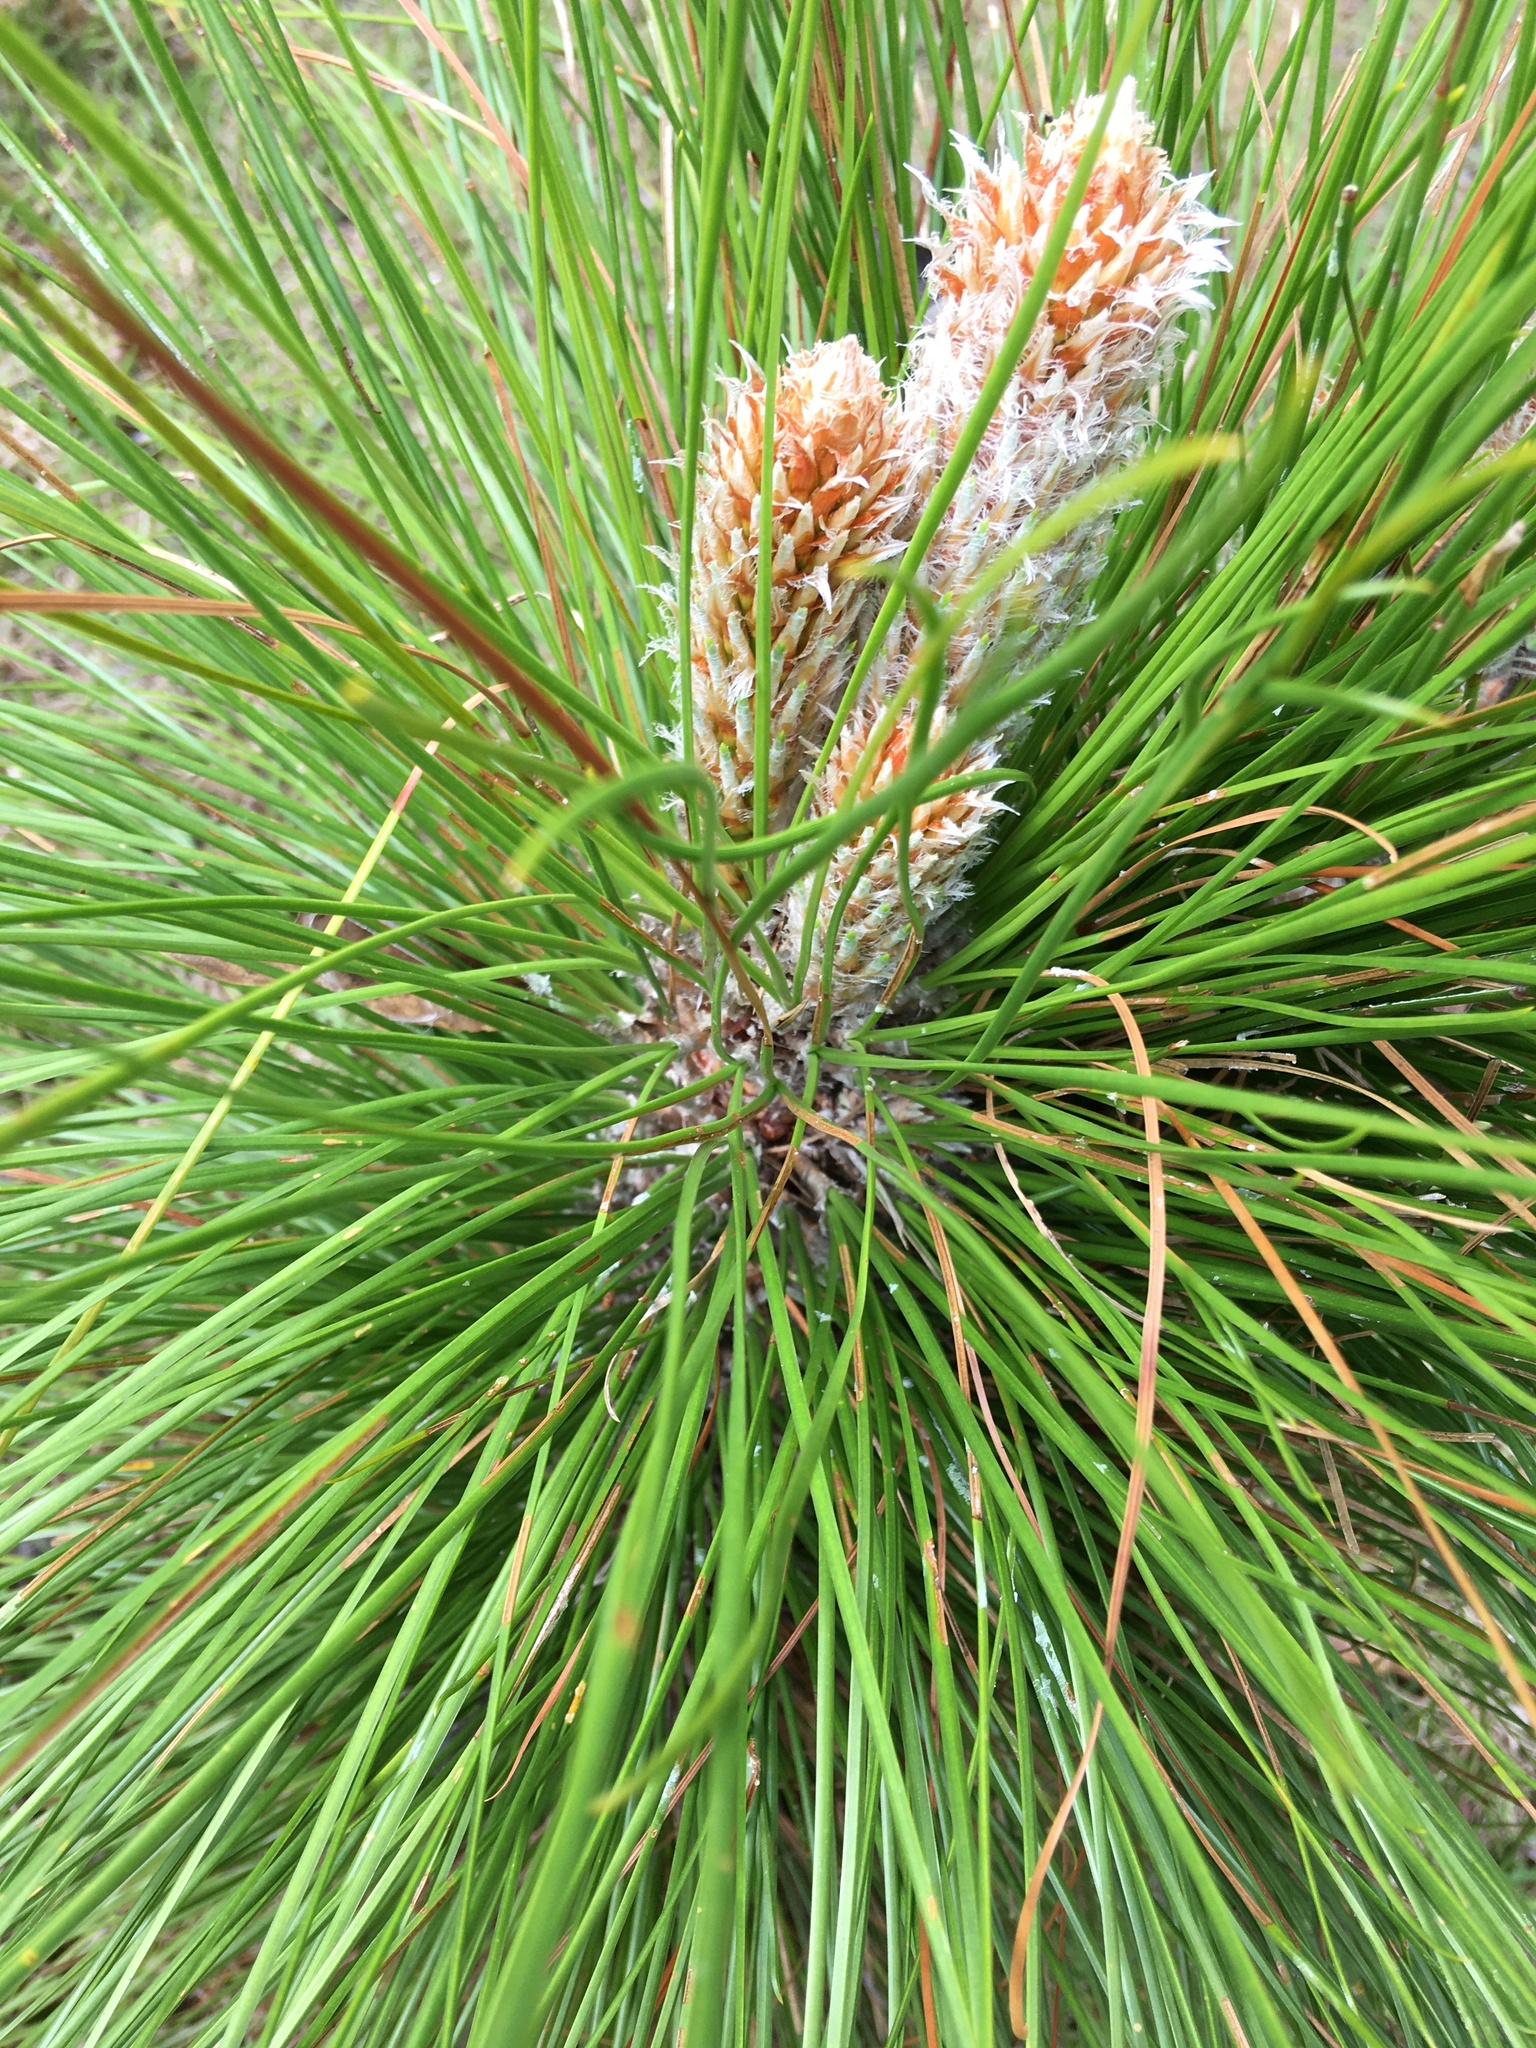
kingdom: Plantae
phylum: Tracheophyta
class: Pinopsida
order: Pinales
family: Pinaceae
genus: Pinus
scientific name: Pinus palustris
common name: Longleaf pine
